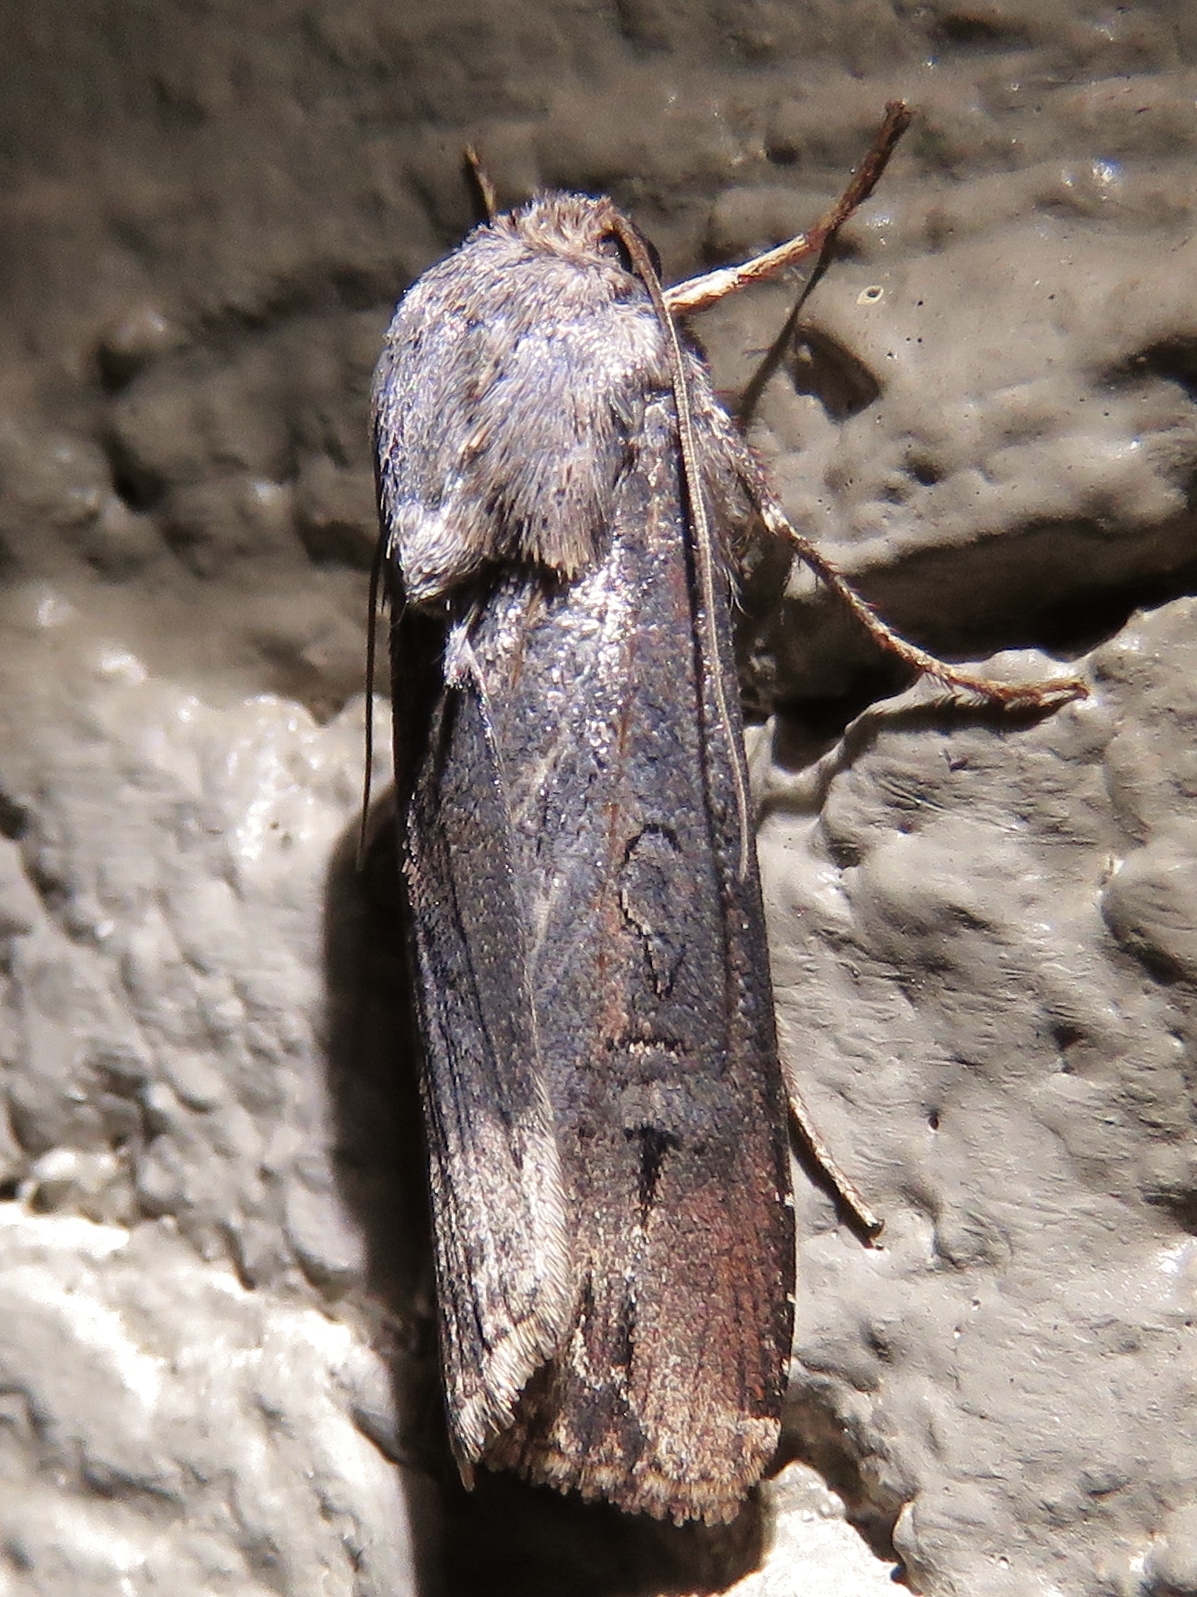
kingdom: Animalia
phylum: Arthropoda
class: Insecta
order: Lepidoptera
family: Noctuidae
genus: Agrotis
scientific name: Agrotis ipsilon
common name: Dark sword-grass
